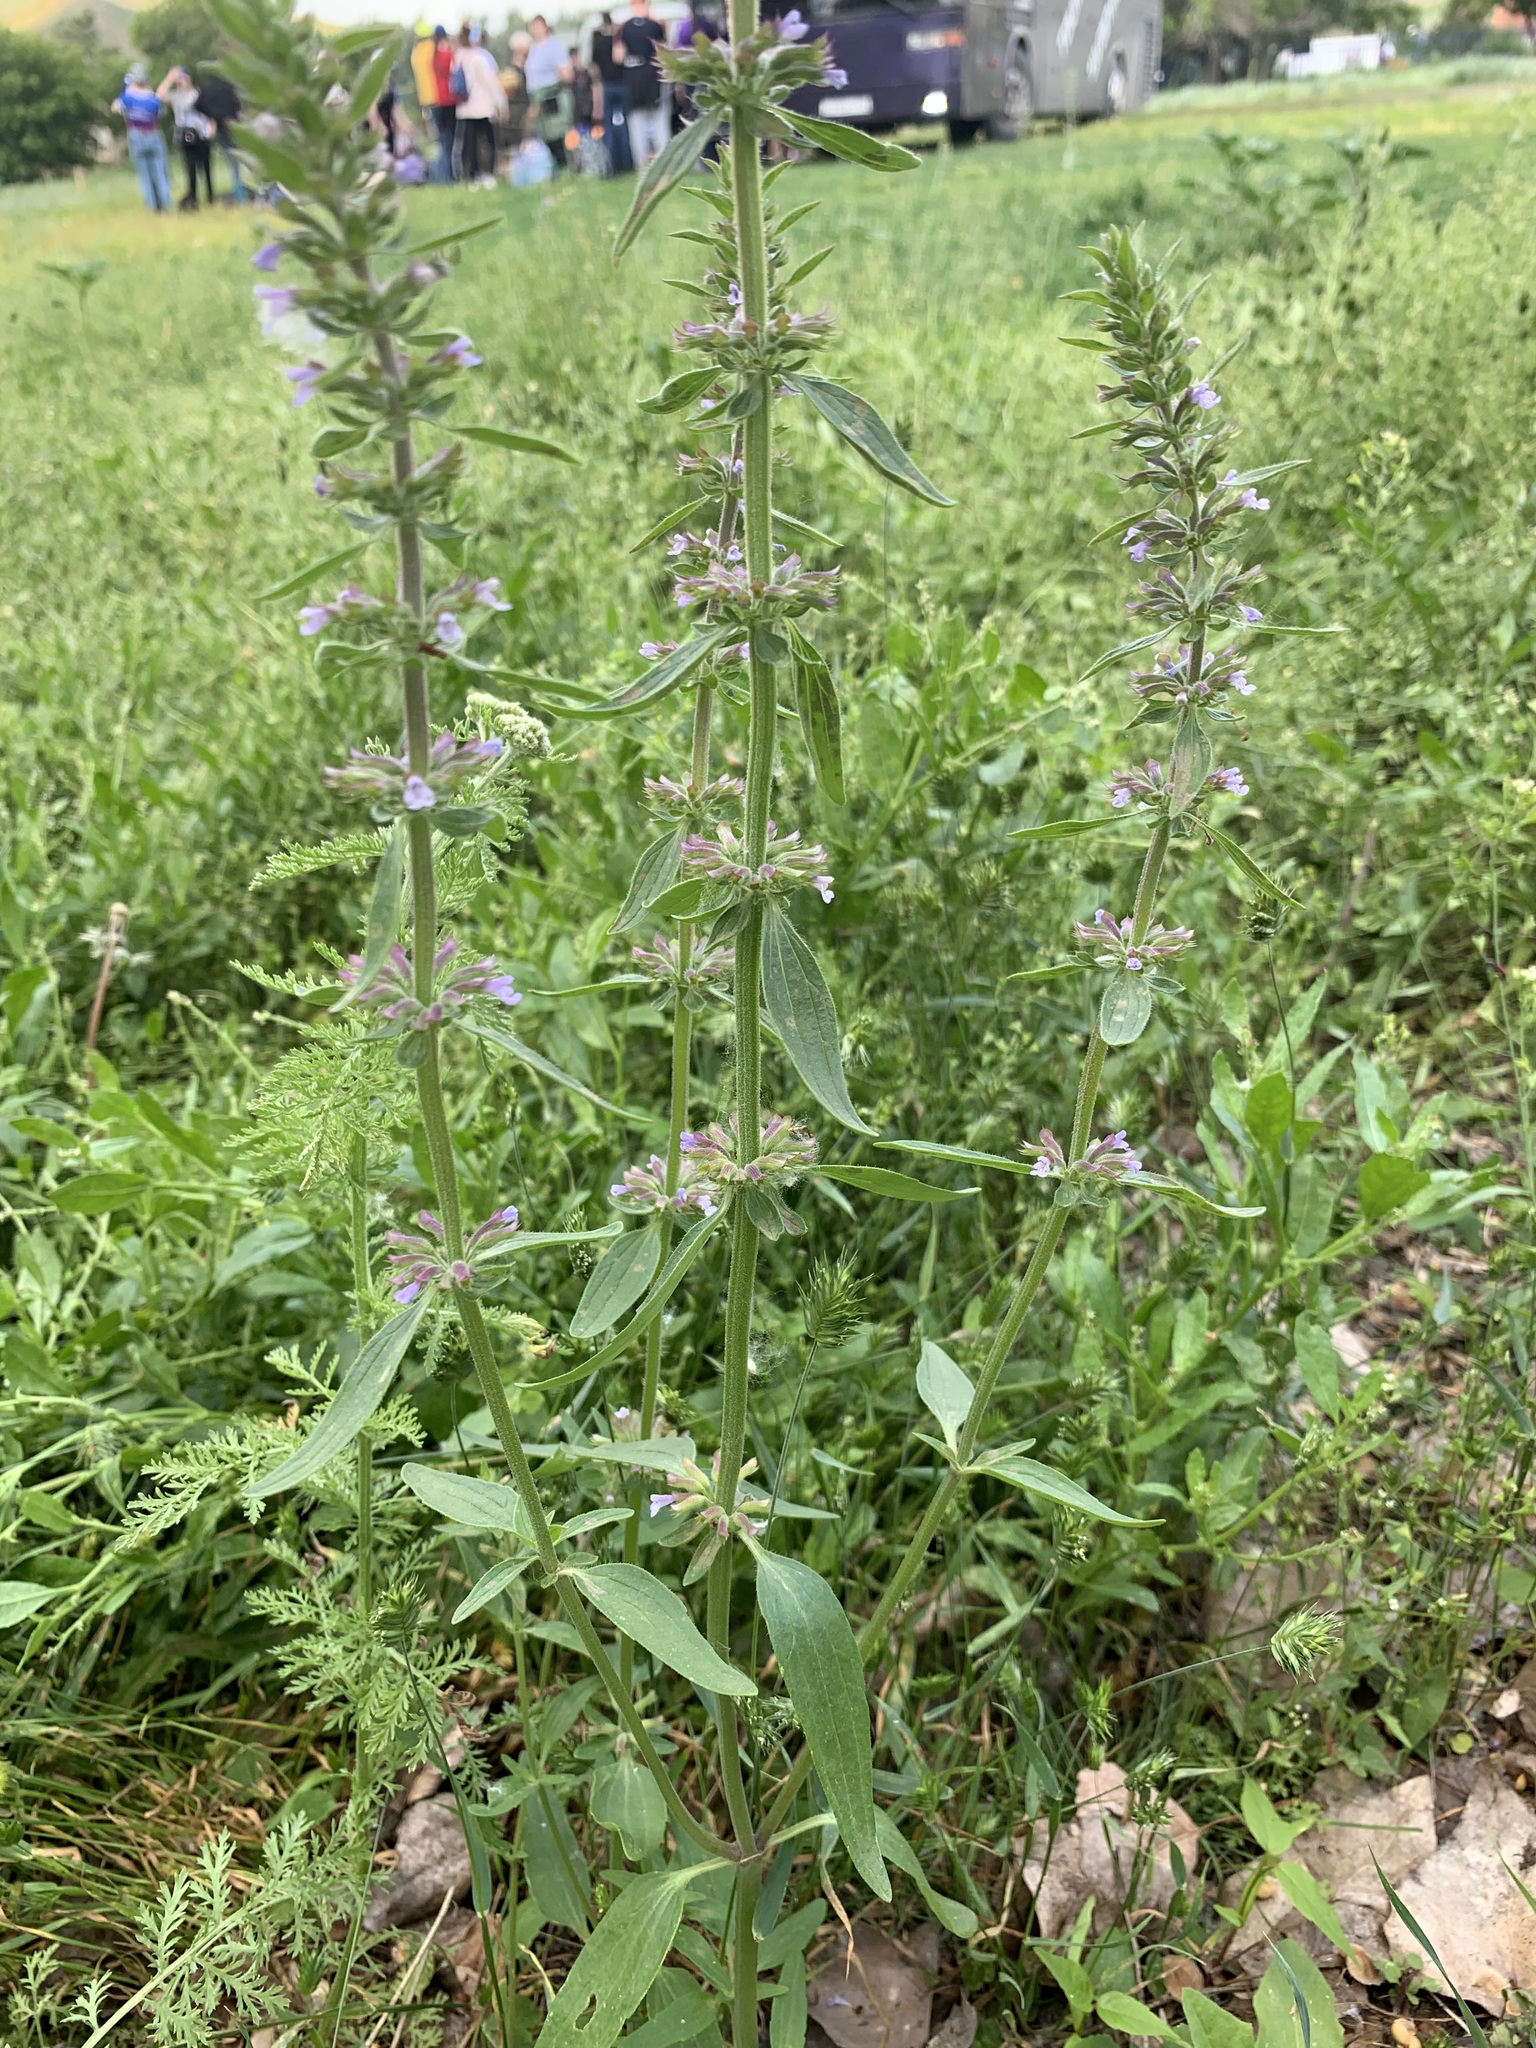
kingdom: Plantae
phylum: Tracheophyta
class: Magnoliopsida
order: Lamiales
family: Lamiaceae
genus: Dracocephalum
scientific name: Dracocephalum thymiflorum
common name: Thymeleaf dragonhead
